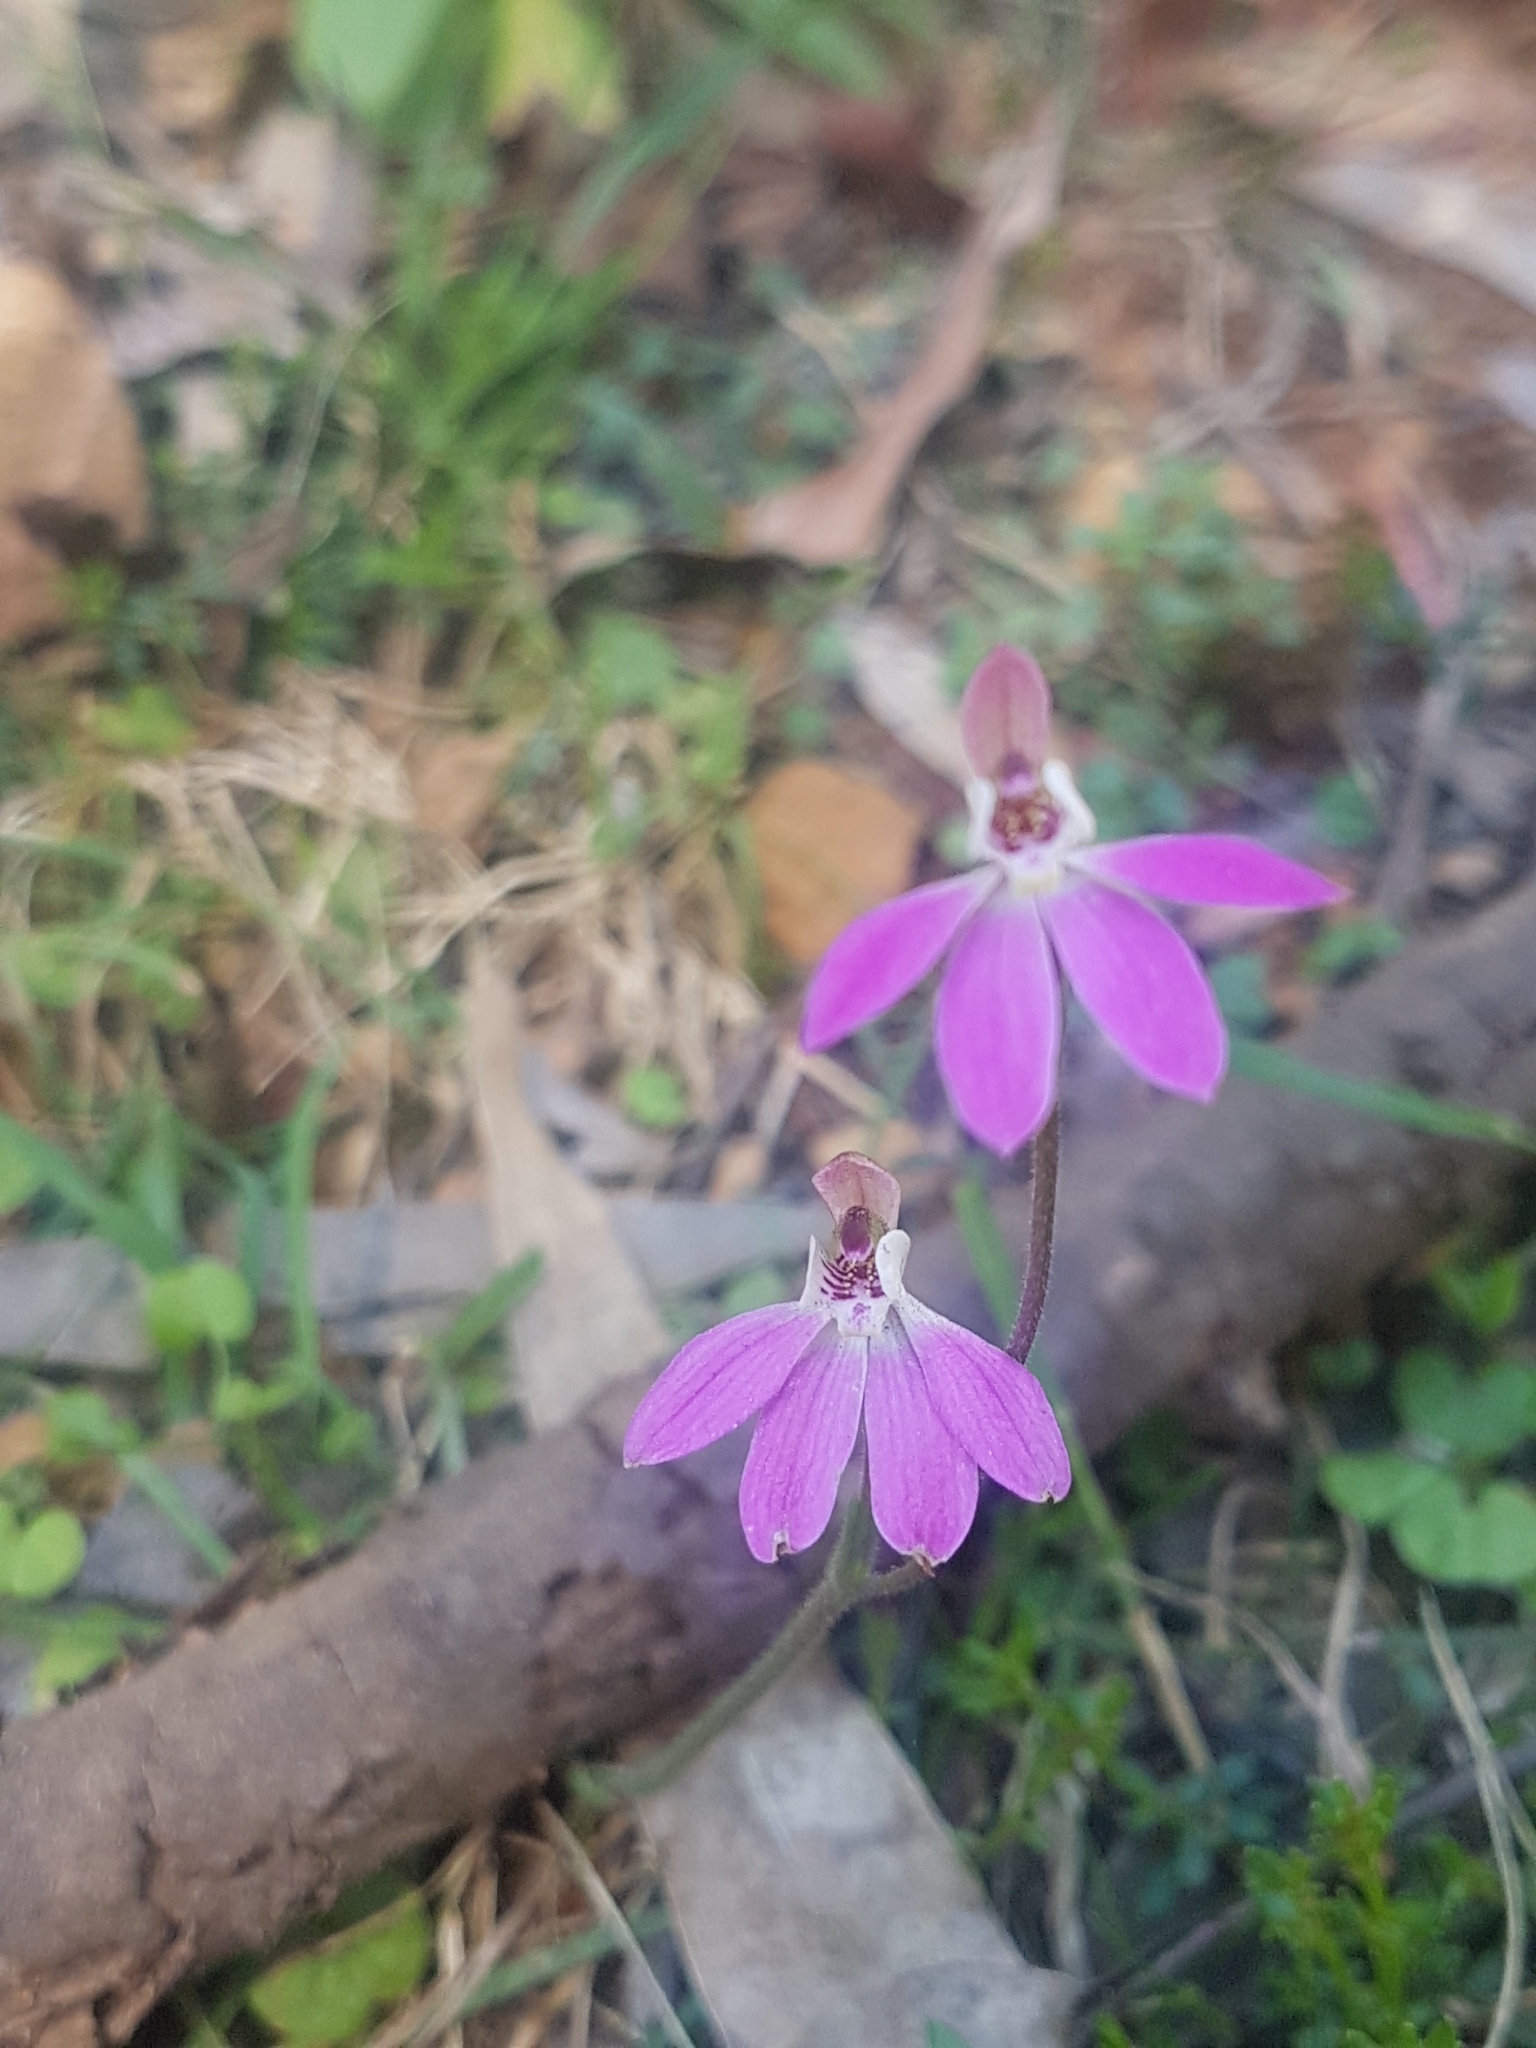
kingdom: Plantae
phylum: Tracheophyta
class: Liliopsida
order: Asparagales
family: Orchidaceae
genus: Caladenia
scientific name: Caladenia carnea
